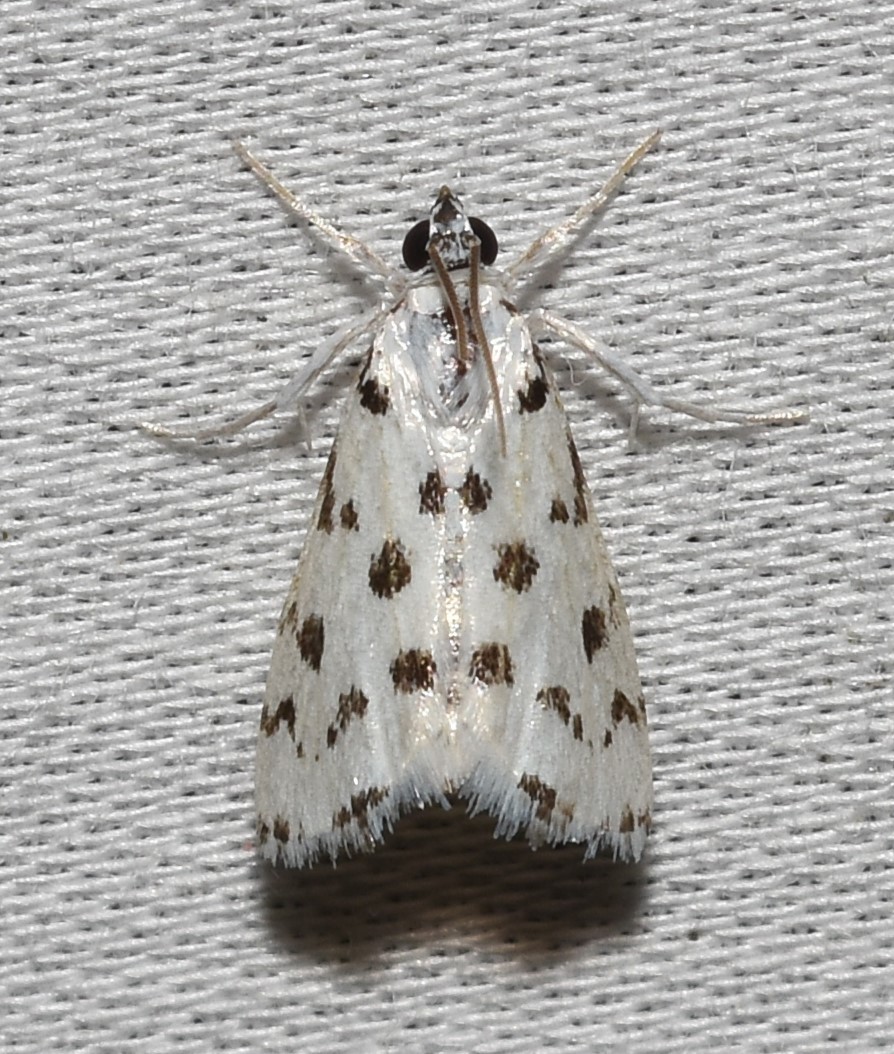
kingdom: Animalia
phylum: Arthropoda
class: Insecta
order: Lepidoptera
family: Crambidae
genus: Eustixia
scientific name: Eustixia pupula
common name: American cabbage pearl
